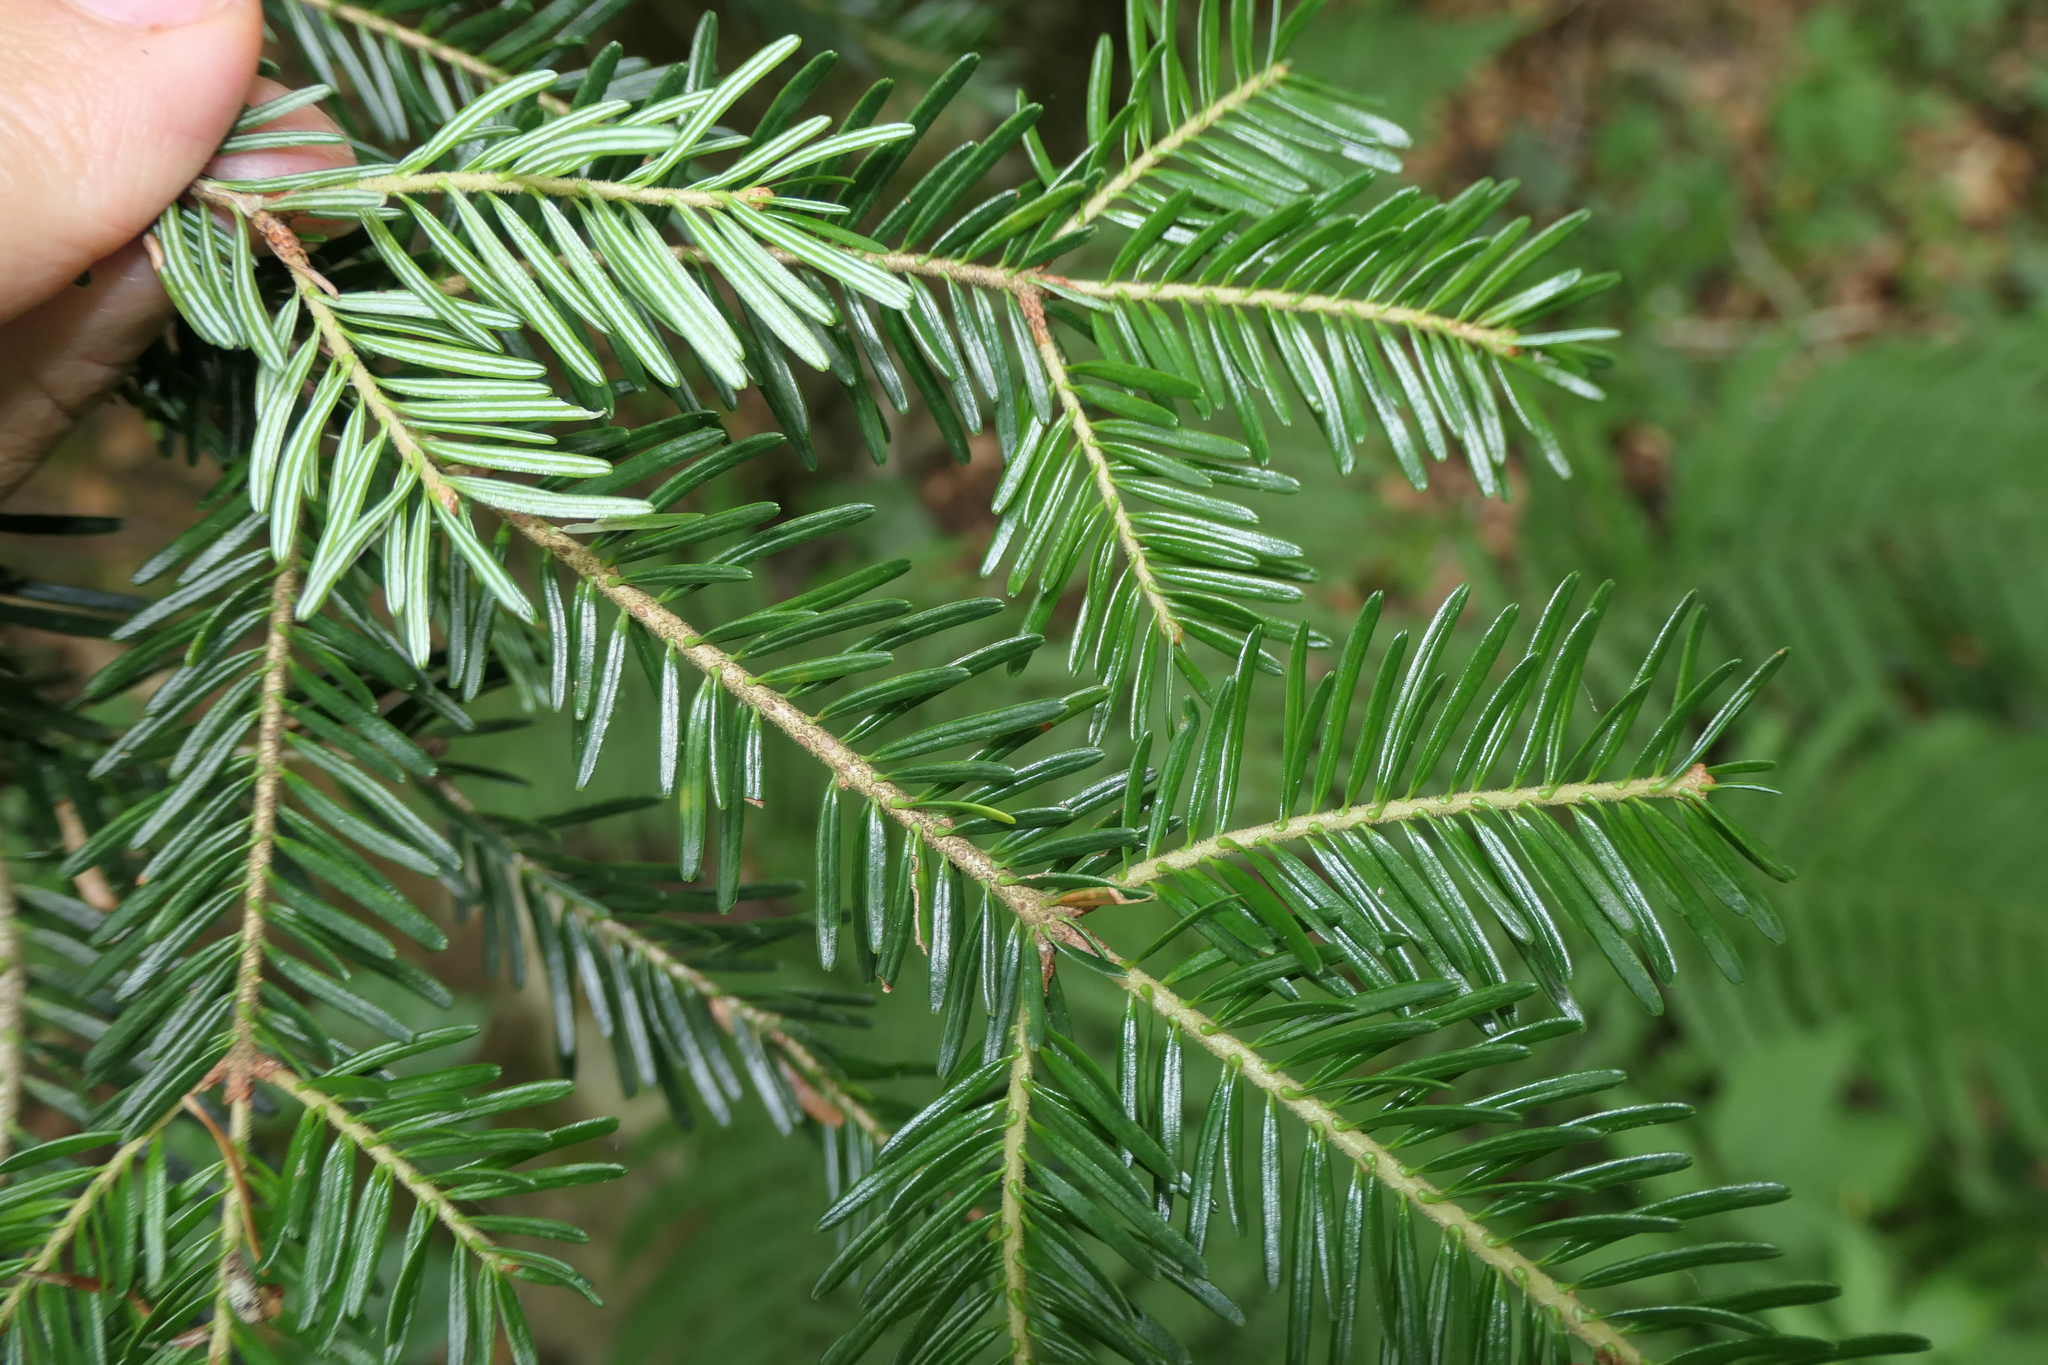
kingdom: Plantae
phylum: Tracheophyta
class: Pinopsida
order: Pinales
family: Pinaceae
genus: Abies
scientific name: Abies alba
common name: Silver fir
